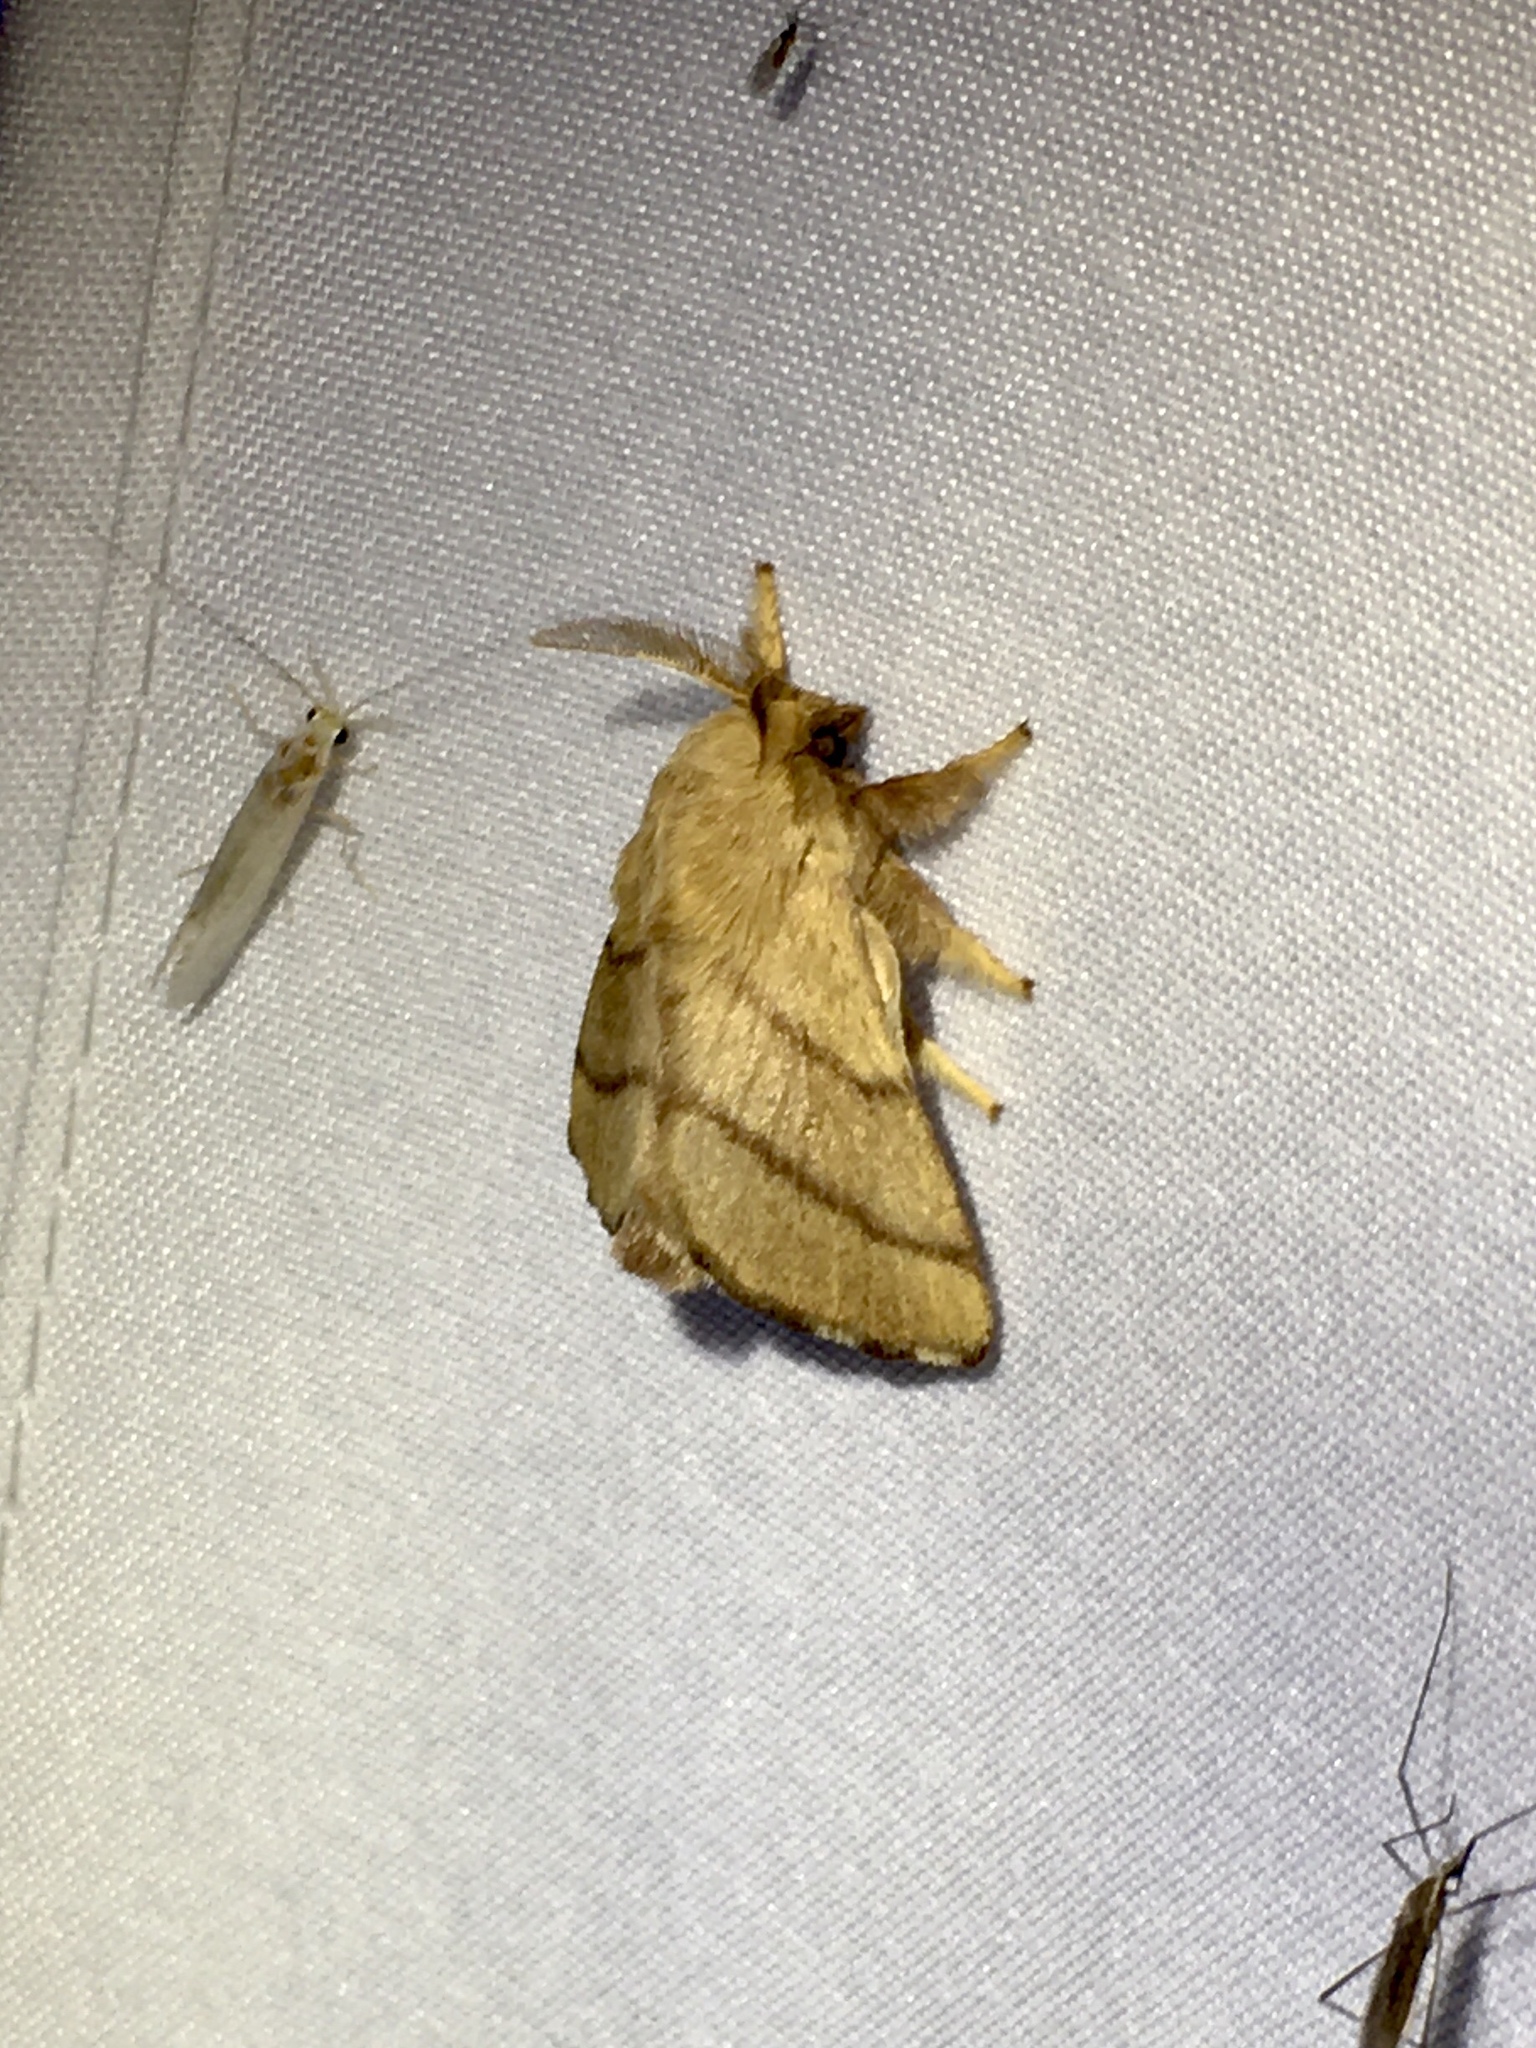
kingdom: Animalia
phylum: Arthropoda
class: Insecta
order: Lepidoptera
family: Lasiocampidae
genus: Malacosoma
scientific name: Malacosoma disstria
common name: Forest tent caterpillar
